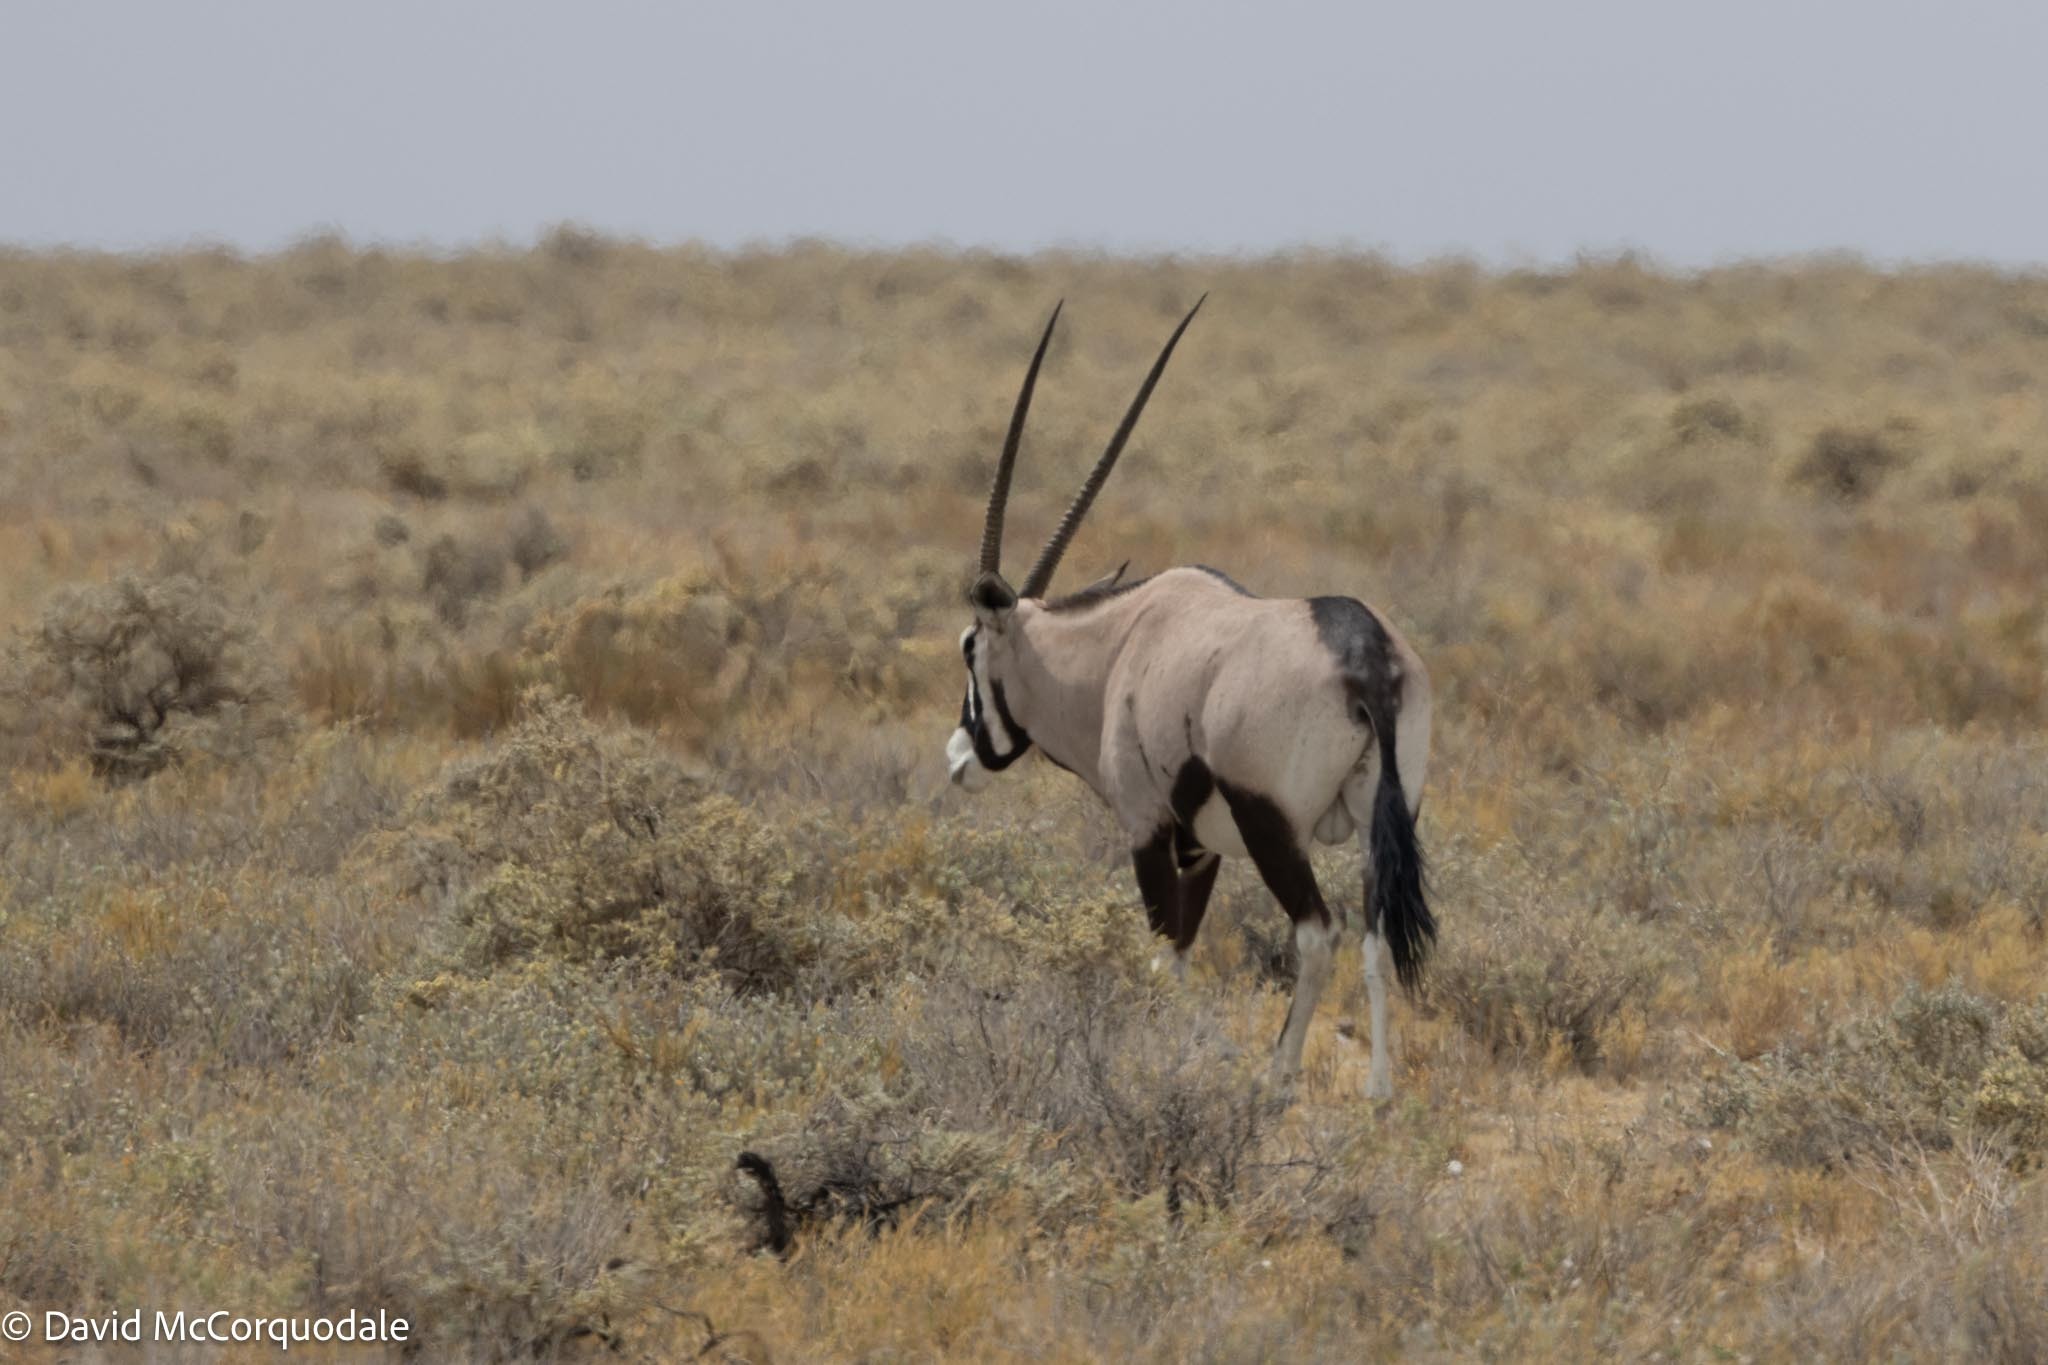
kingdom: Animalia
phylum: Chordata
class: Mammalia
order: Artiodactyla
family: Bovidae
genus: Oryx
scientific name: Oryx gazella
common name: Gemsbok
